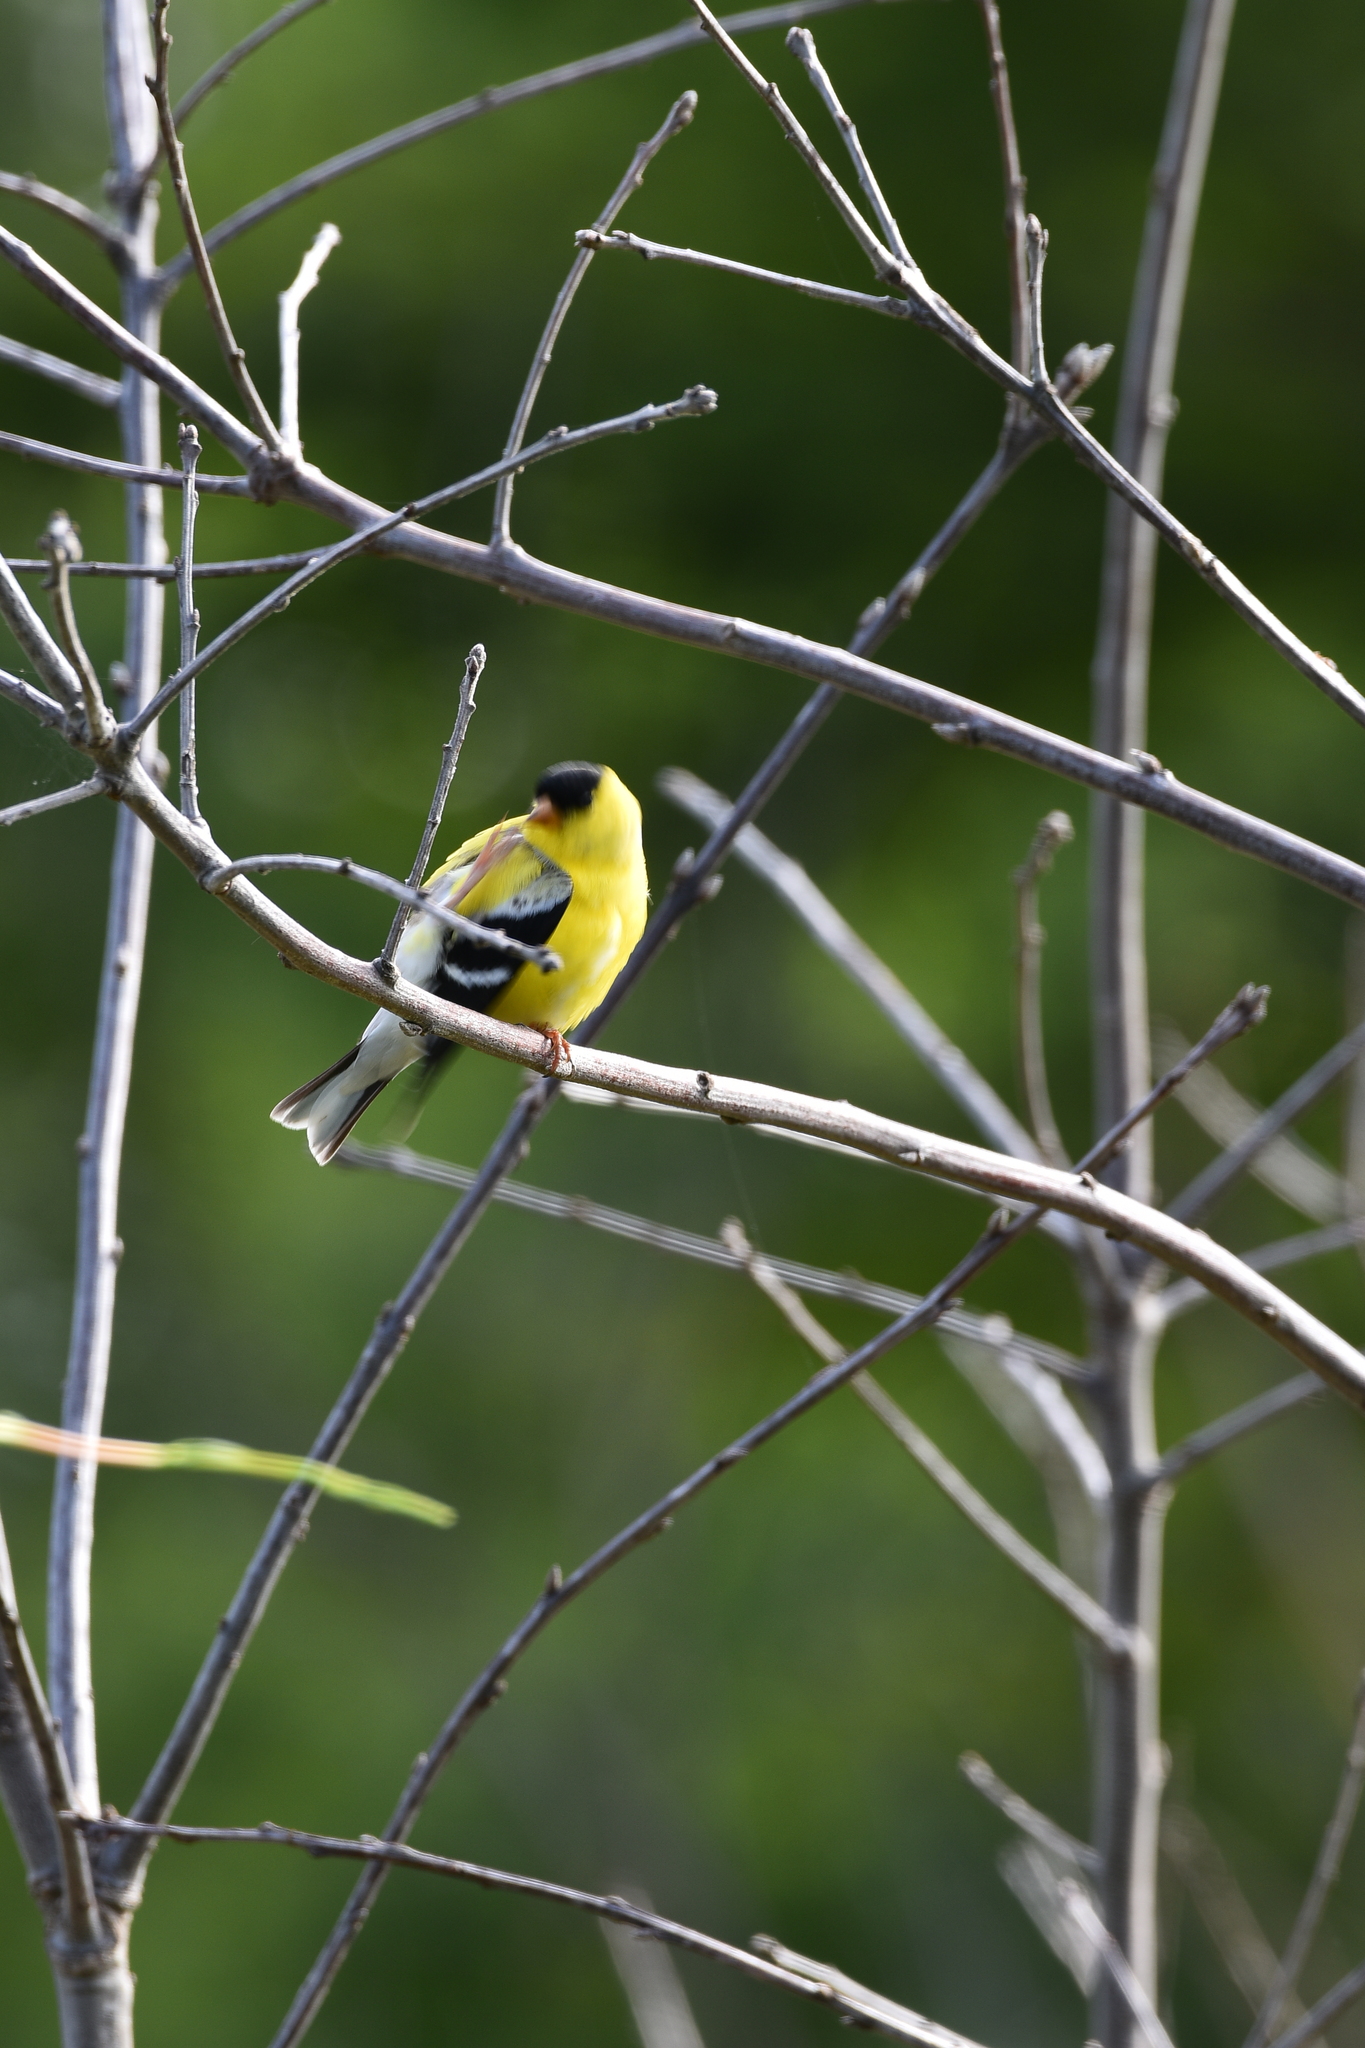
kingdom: Animalia
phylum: Chordata
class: Aves
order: Passeriformes
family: Fringillidae
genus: Spinus
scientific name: Spinus tristis
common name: American goldfinch
